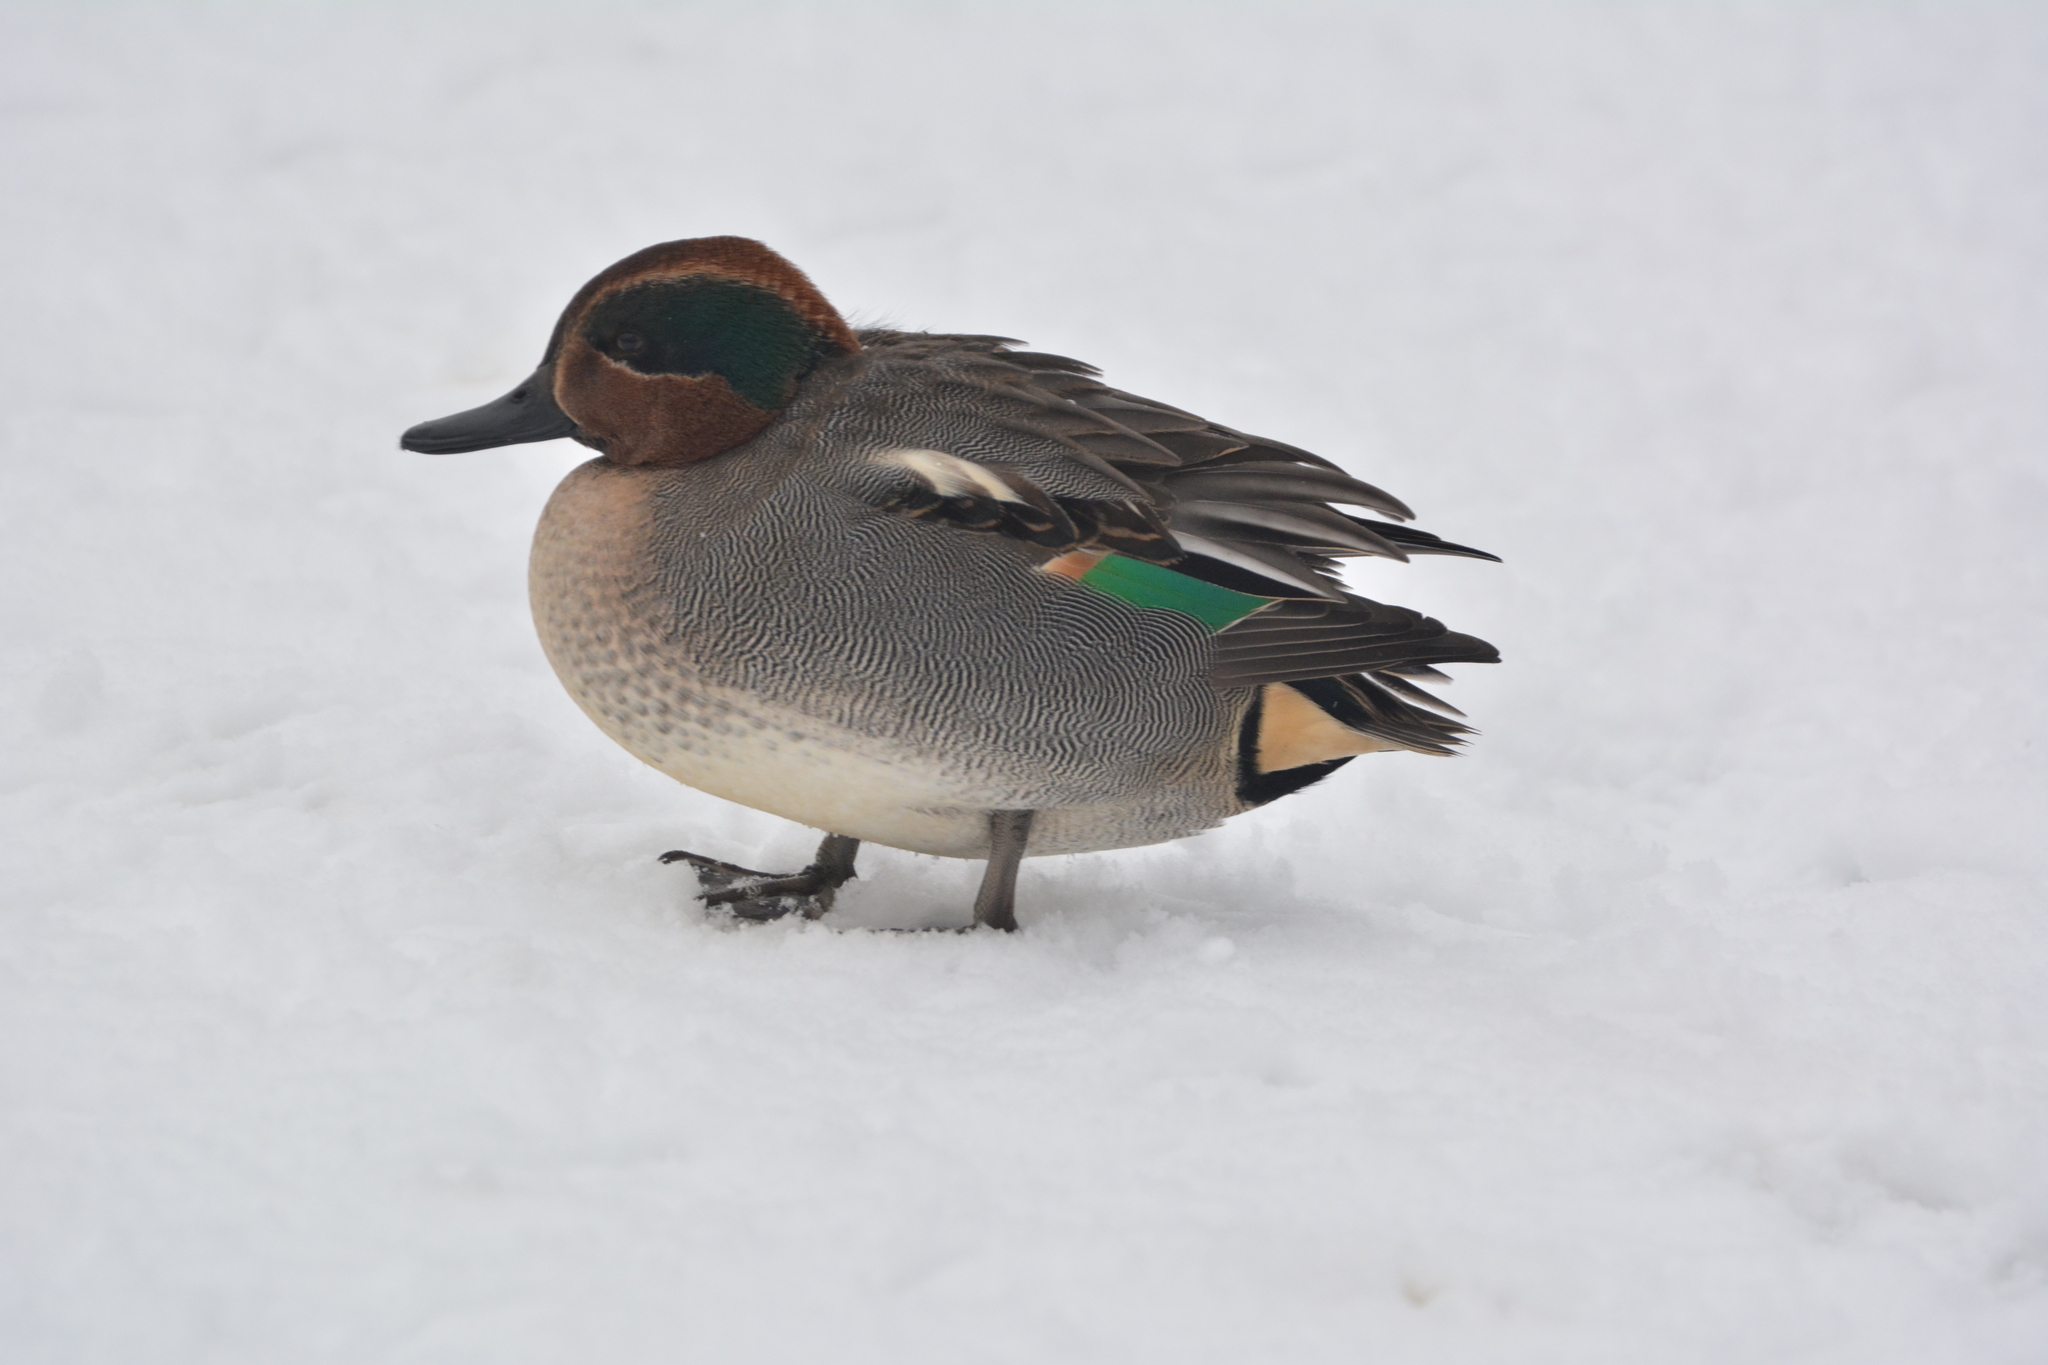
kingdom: Animalia
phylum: Chordata
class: Aves
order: Anseriformes
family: Anatidae
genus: Anas
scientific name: Anas crecca
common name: Eurasian teal
